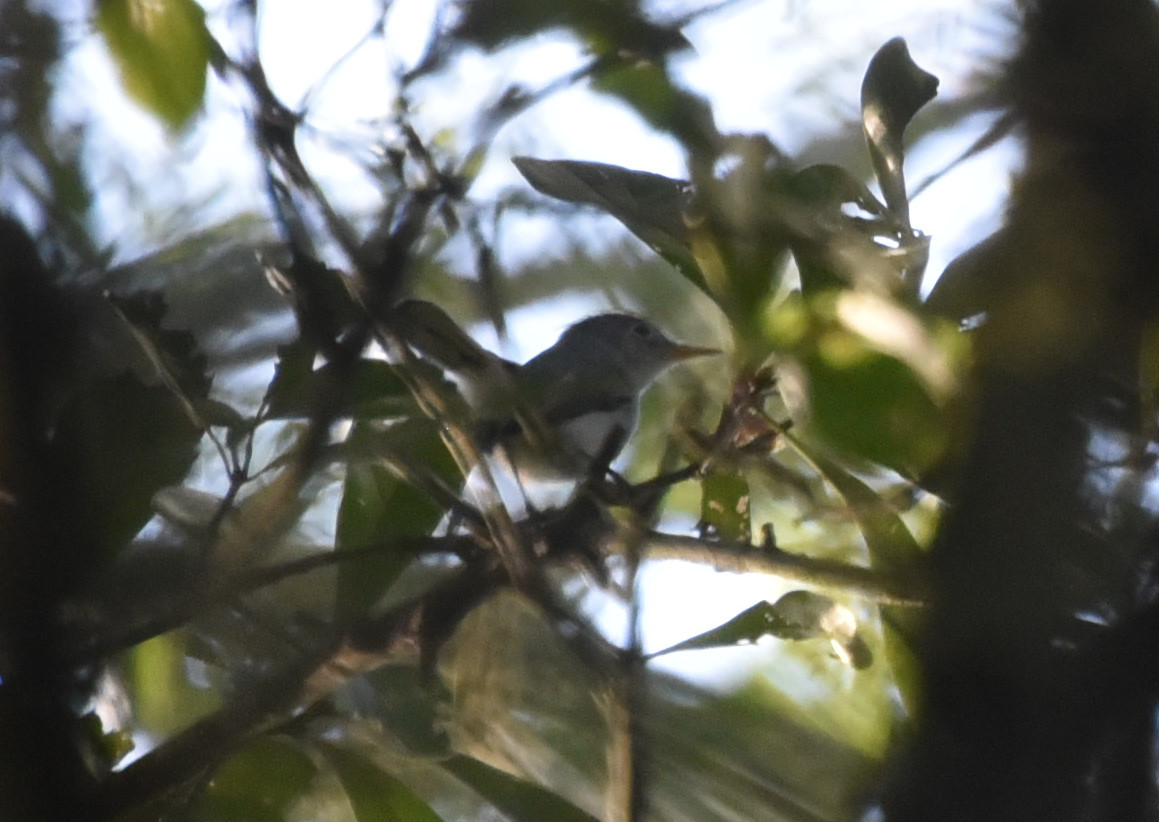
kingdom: Animalia
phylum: Chordata
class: Aves
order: Passeriformes
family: Polioptilidae
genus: Polioptila
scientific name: Polioptila caerulea
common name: Blue-gray gnatcatcher
